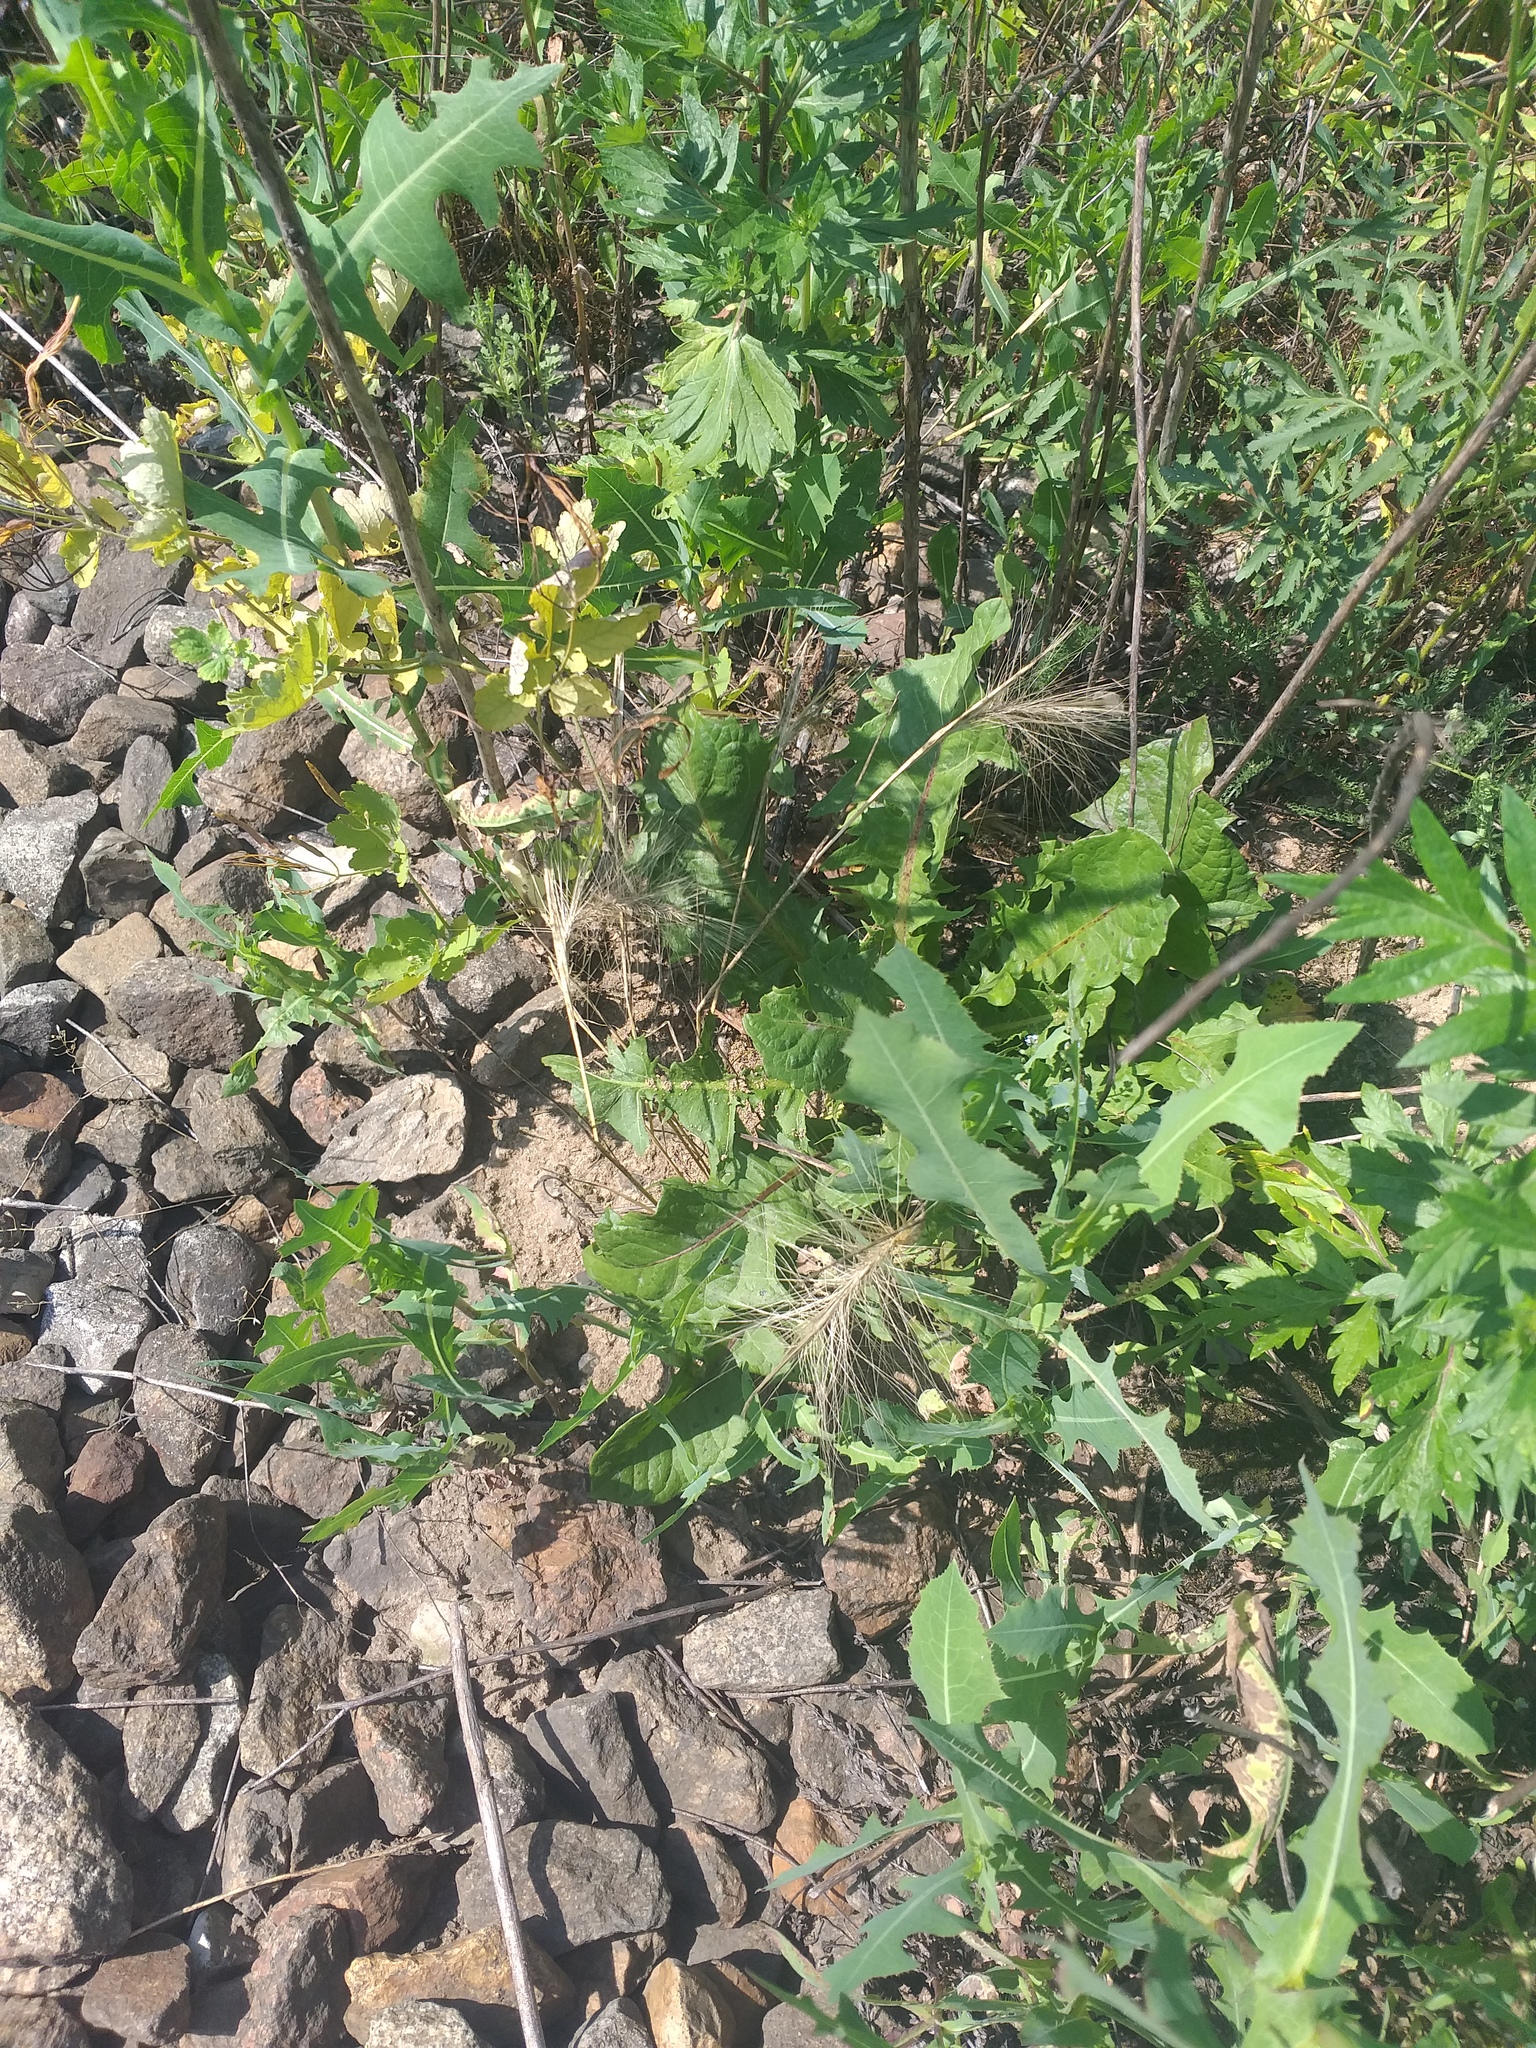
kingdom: Plantae
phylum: Tracheophyta
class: Liliopsida
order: Poales
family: Poaceae
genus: Hordeum
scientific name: Hordeum jubatum
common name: Foxtail barley
